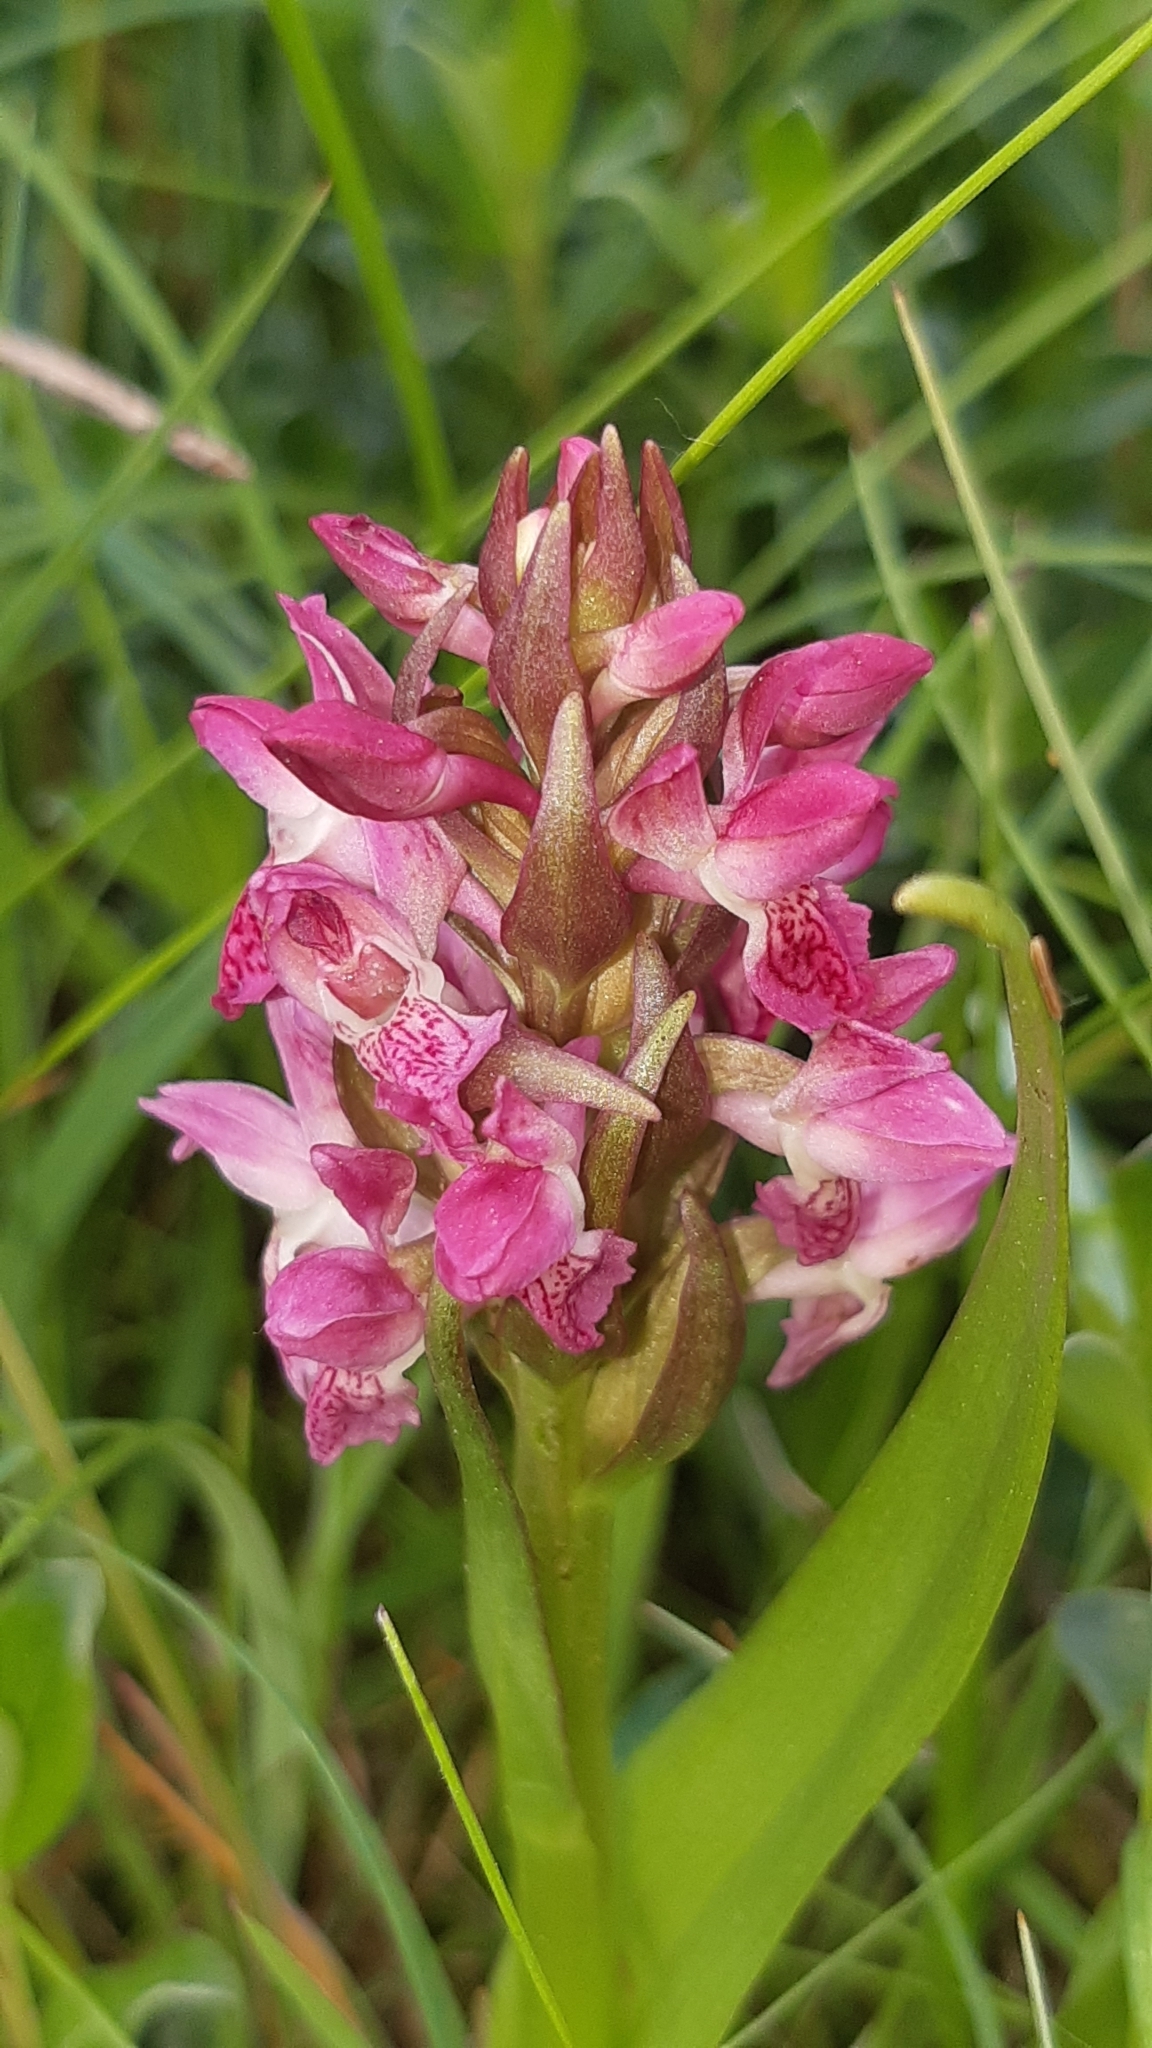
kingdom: Plantae
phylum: Tracheophyta
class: Liliopsida
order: Asparagales
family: Orchidaceae
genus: Dactylorhiza
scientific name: Dactylorhiza incarnata
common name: Early marsh-orchid
